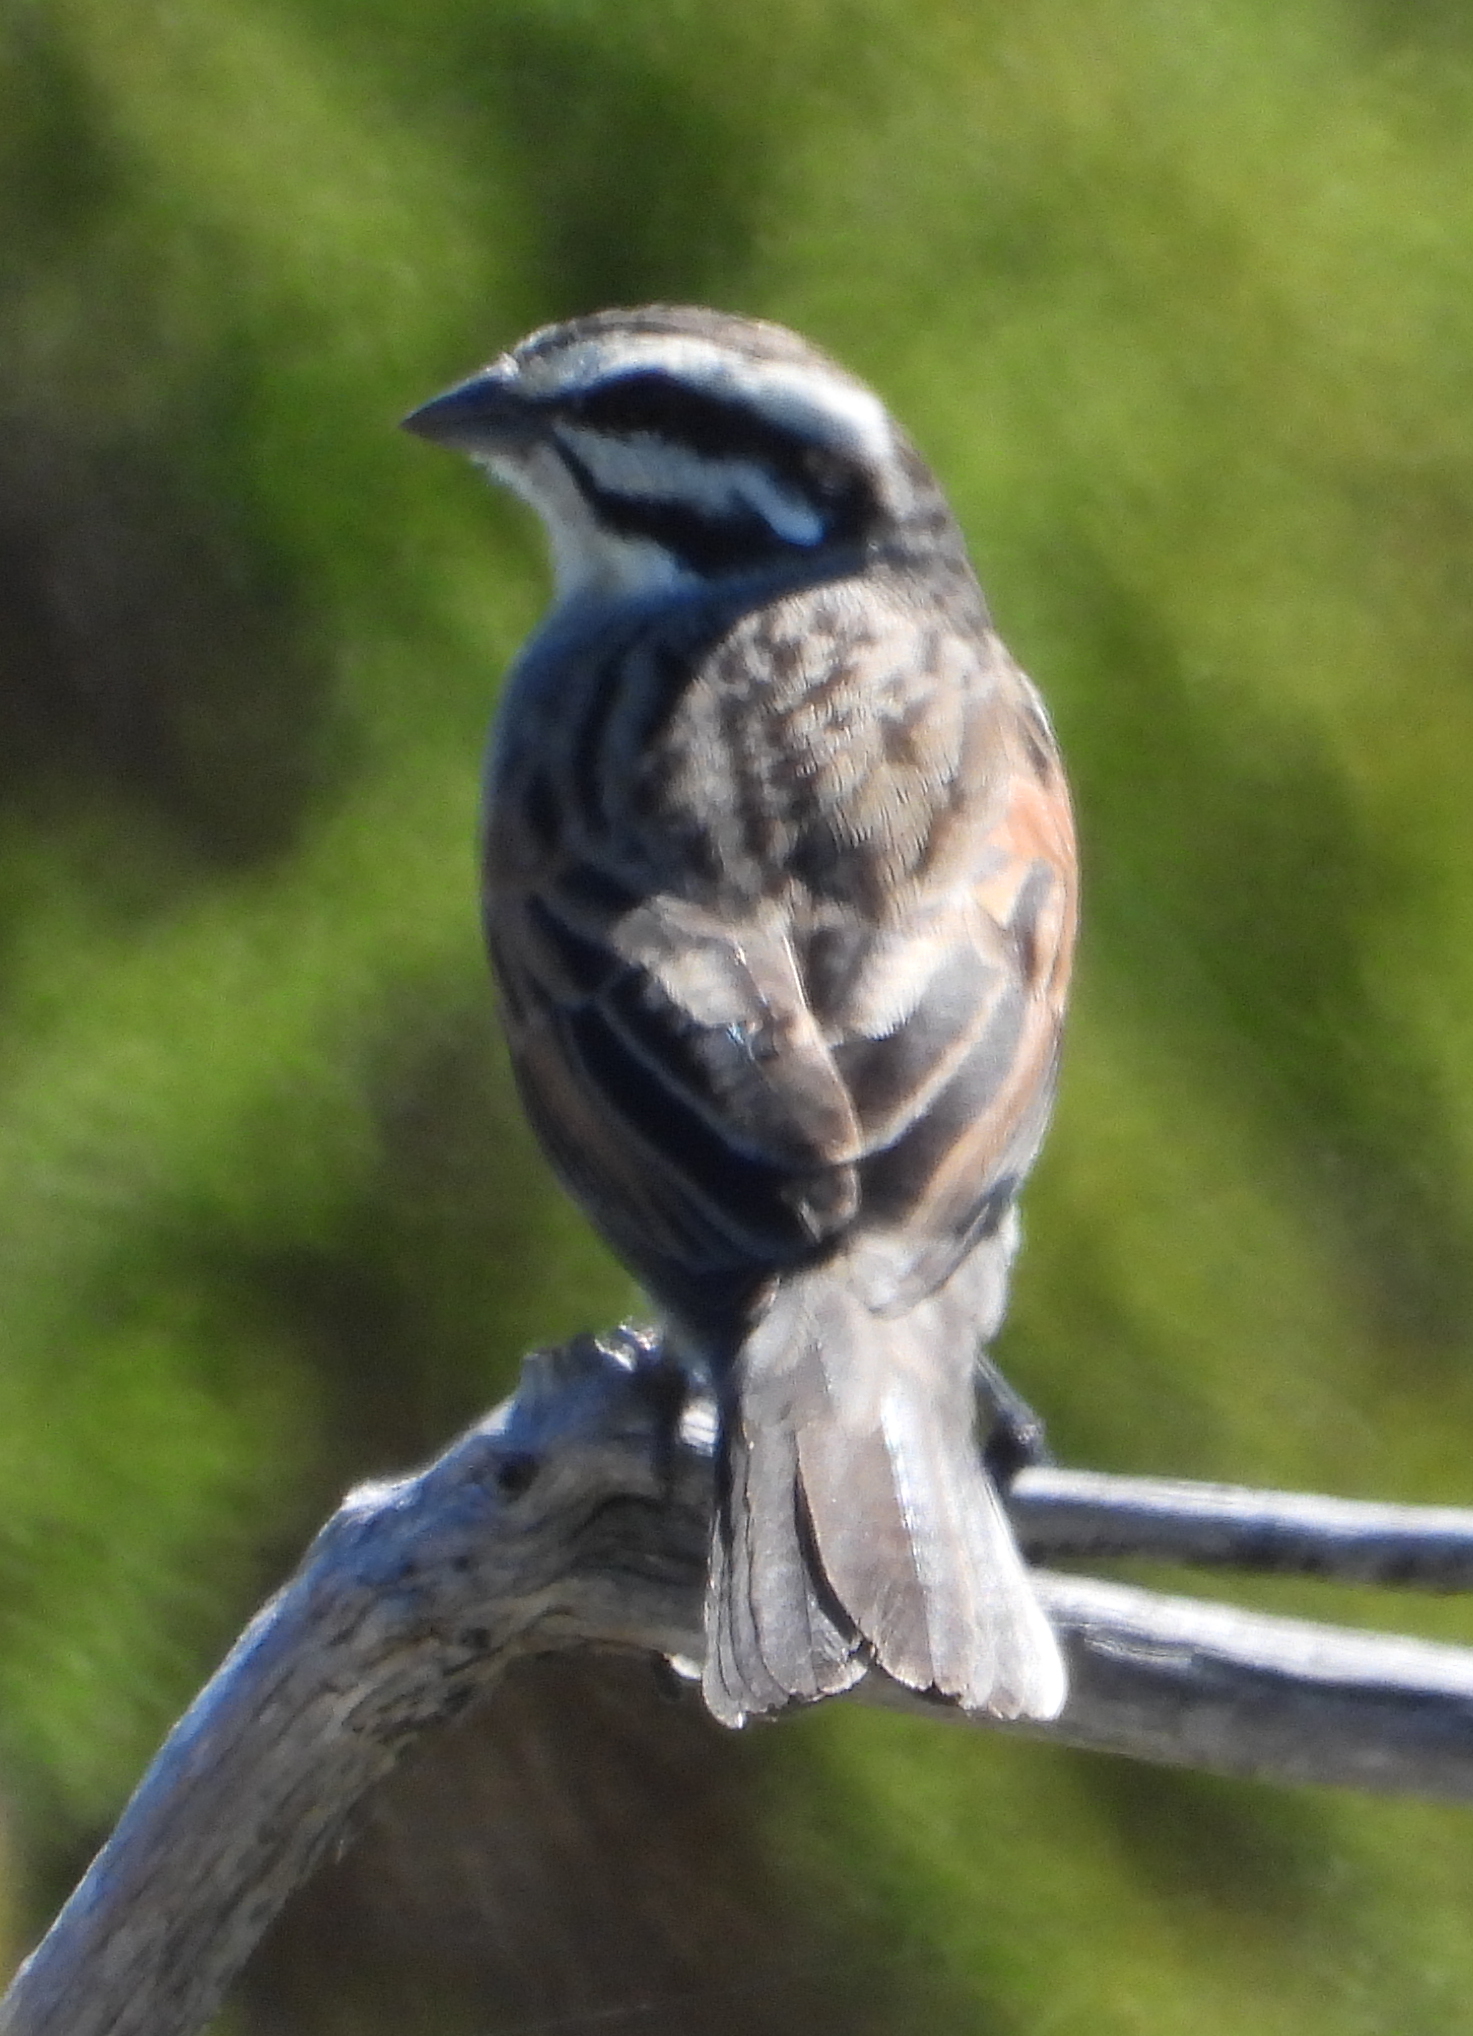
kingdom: Animalia
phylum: Chordata
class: Aves
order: Passeriformes
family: Emberizidae
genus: Emberiza
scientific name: Emberiza capensis
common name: Cape bunting
